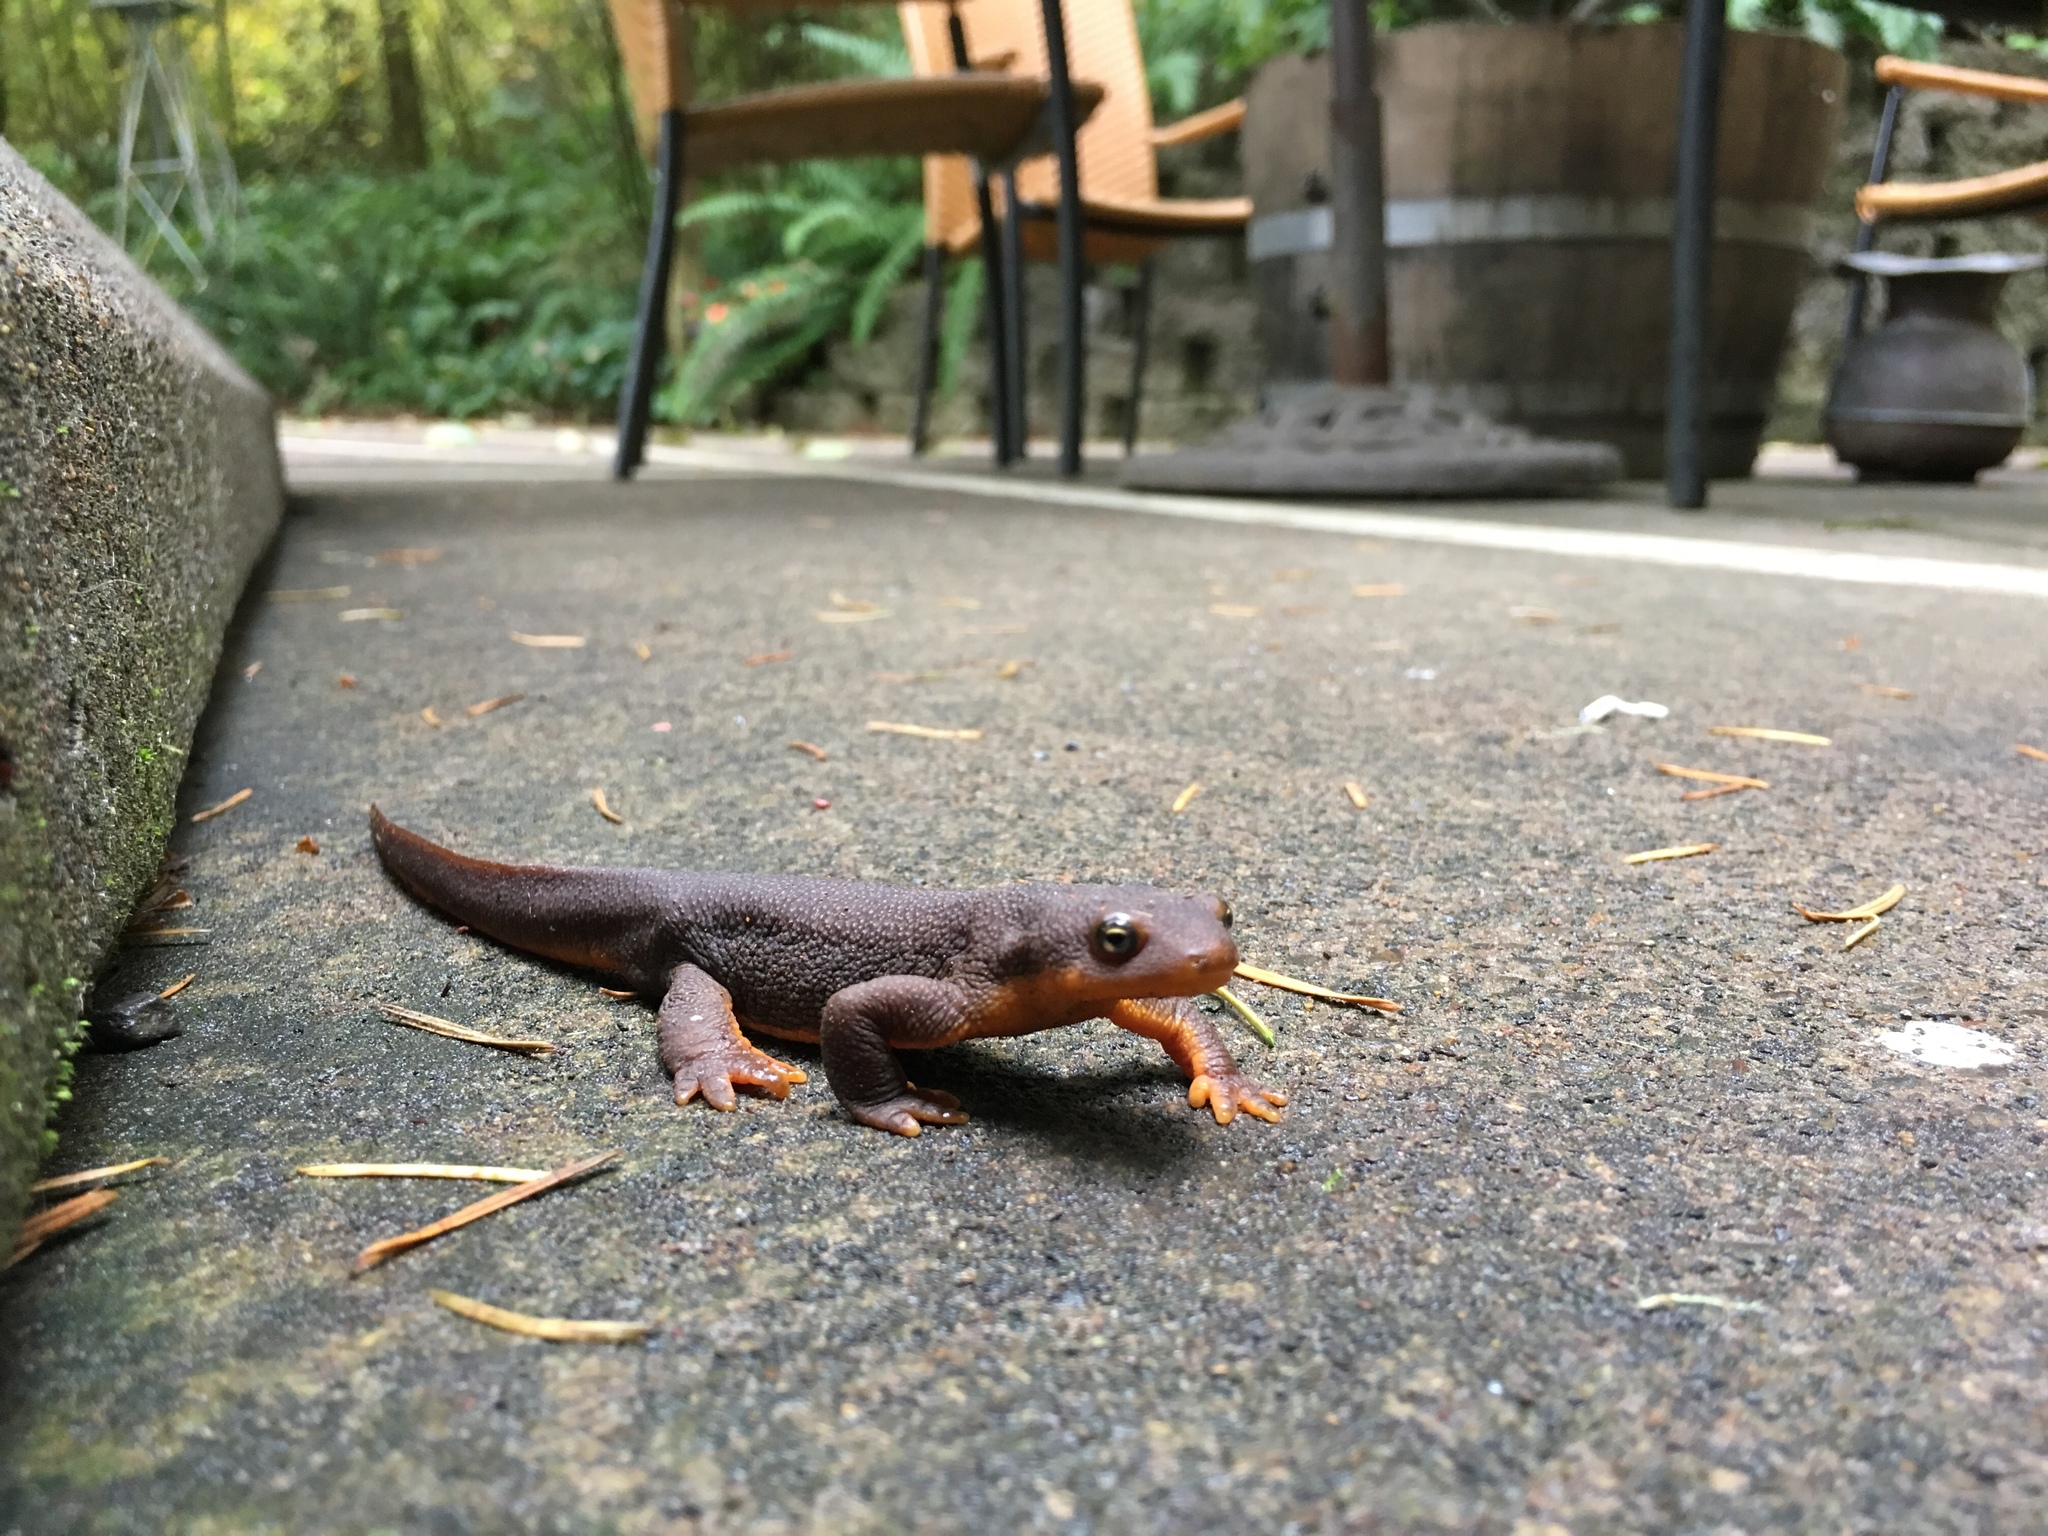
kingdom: Animalia
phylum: Chordata
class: Amphibia
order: Caudata
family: Salamandridae
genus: Taricha
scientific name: Taricha granulosa
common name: Roughskin newt
